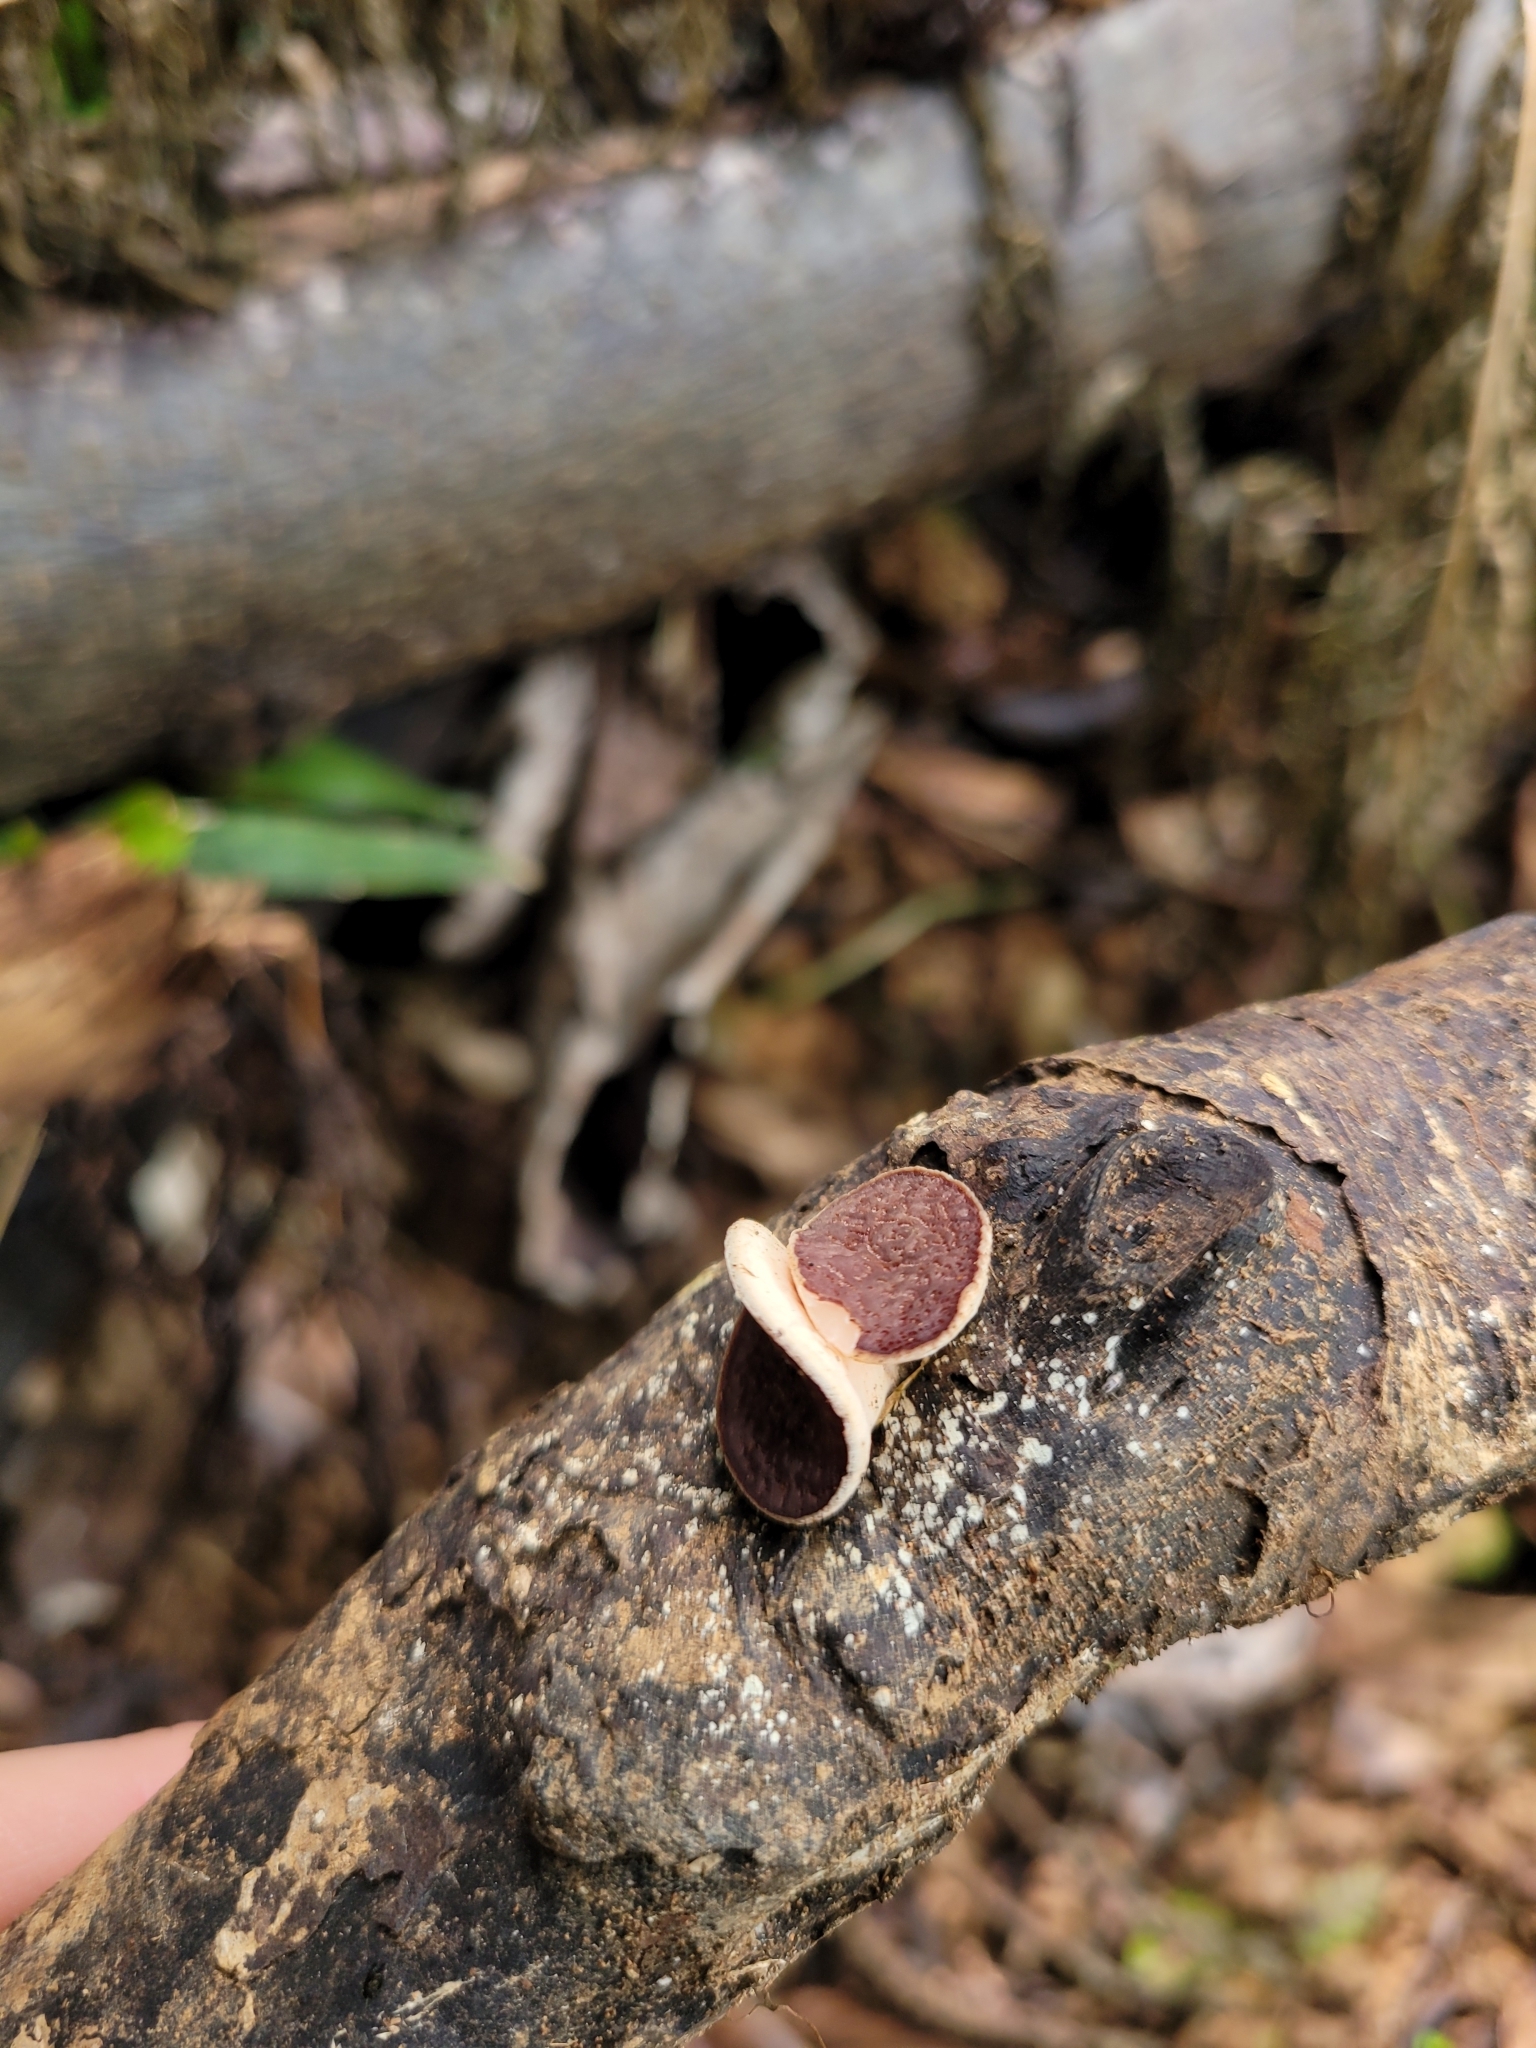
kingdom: Fungi
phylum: Ascomycota
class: Pezizomycetes
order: Pezizales
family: Sarcoscyphaceae
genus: Phillipsia
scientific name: Phillipsia domingensis
